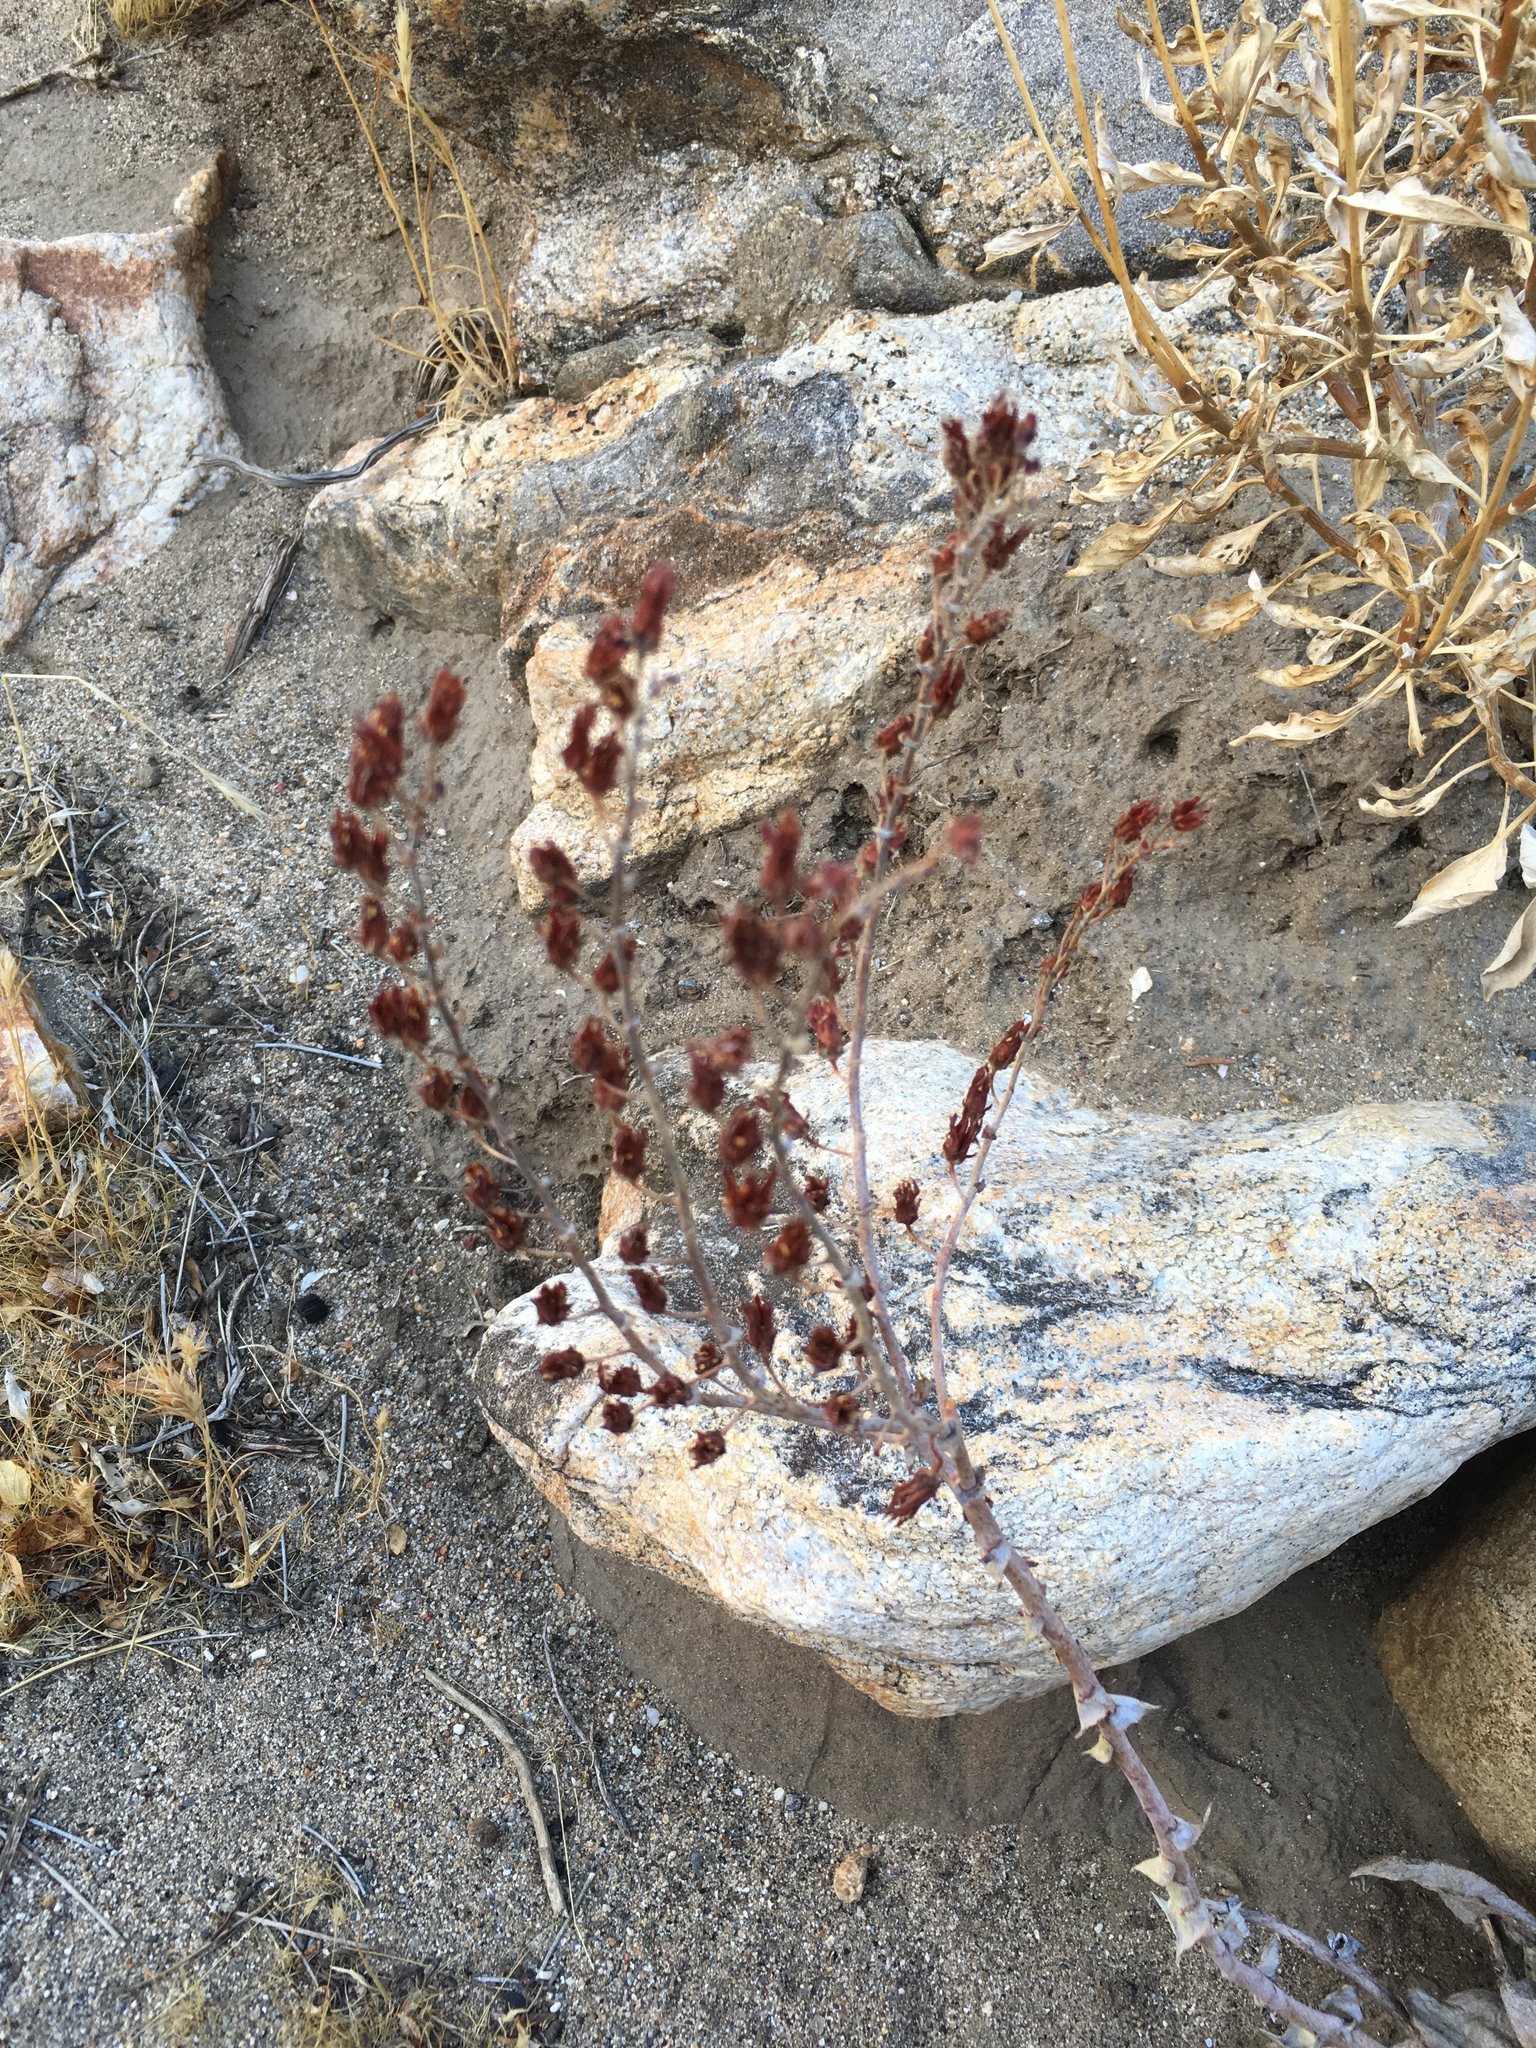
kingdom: Plantae
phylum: Tracheophyta
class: Magnoliopsida
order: Saxifragales
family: Crassulaceae
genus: Dudleya
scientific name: Dudleya arizonica
